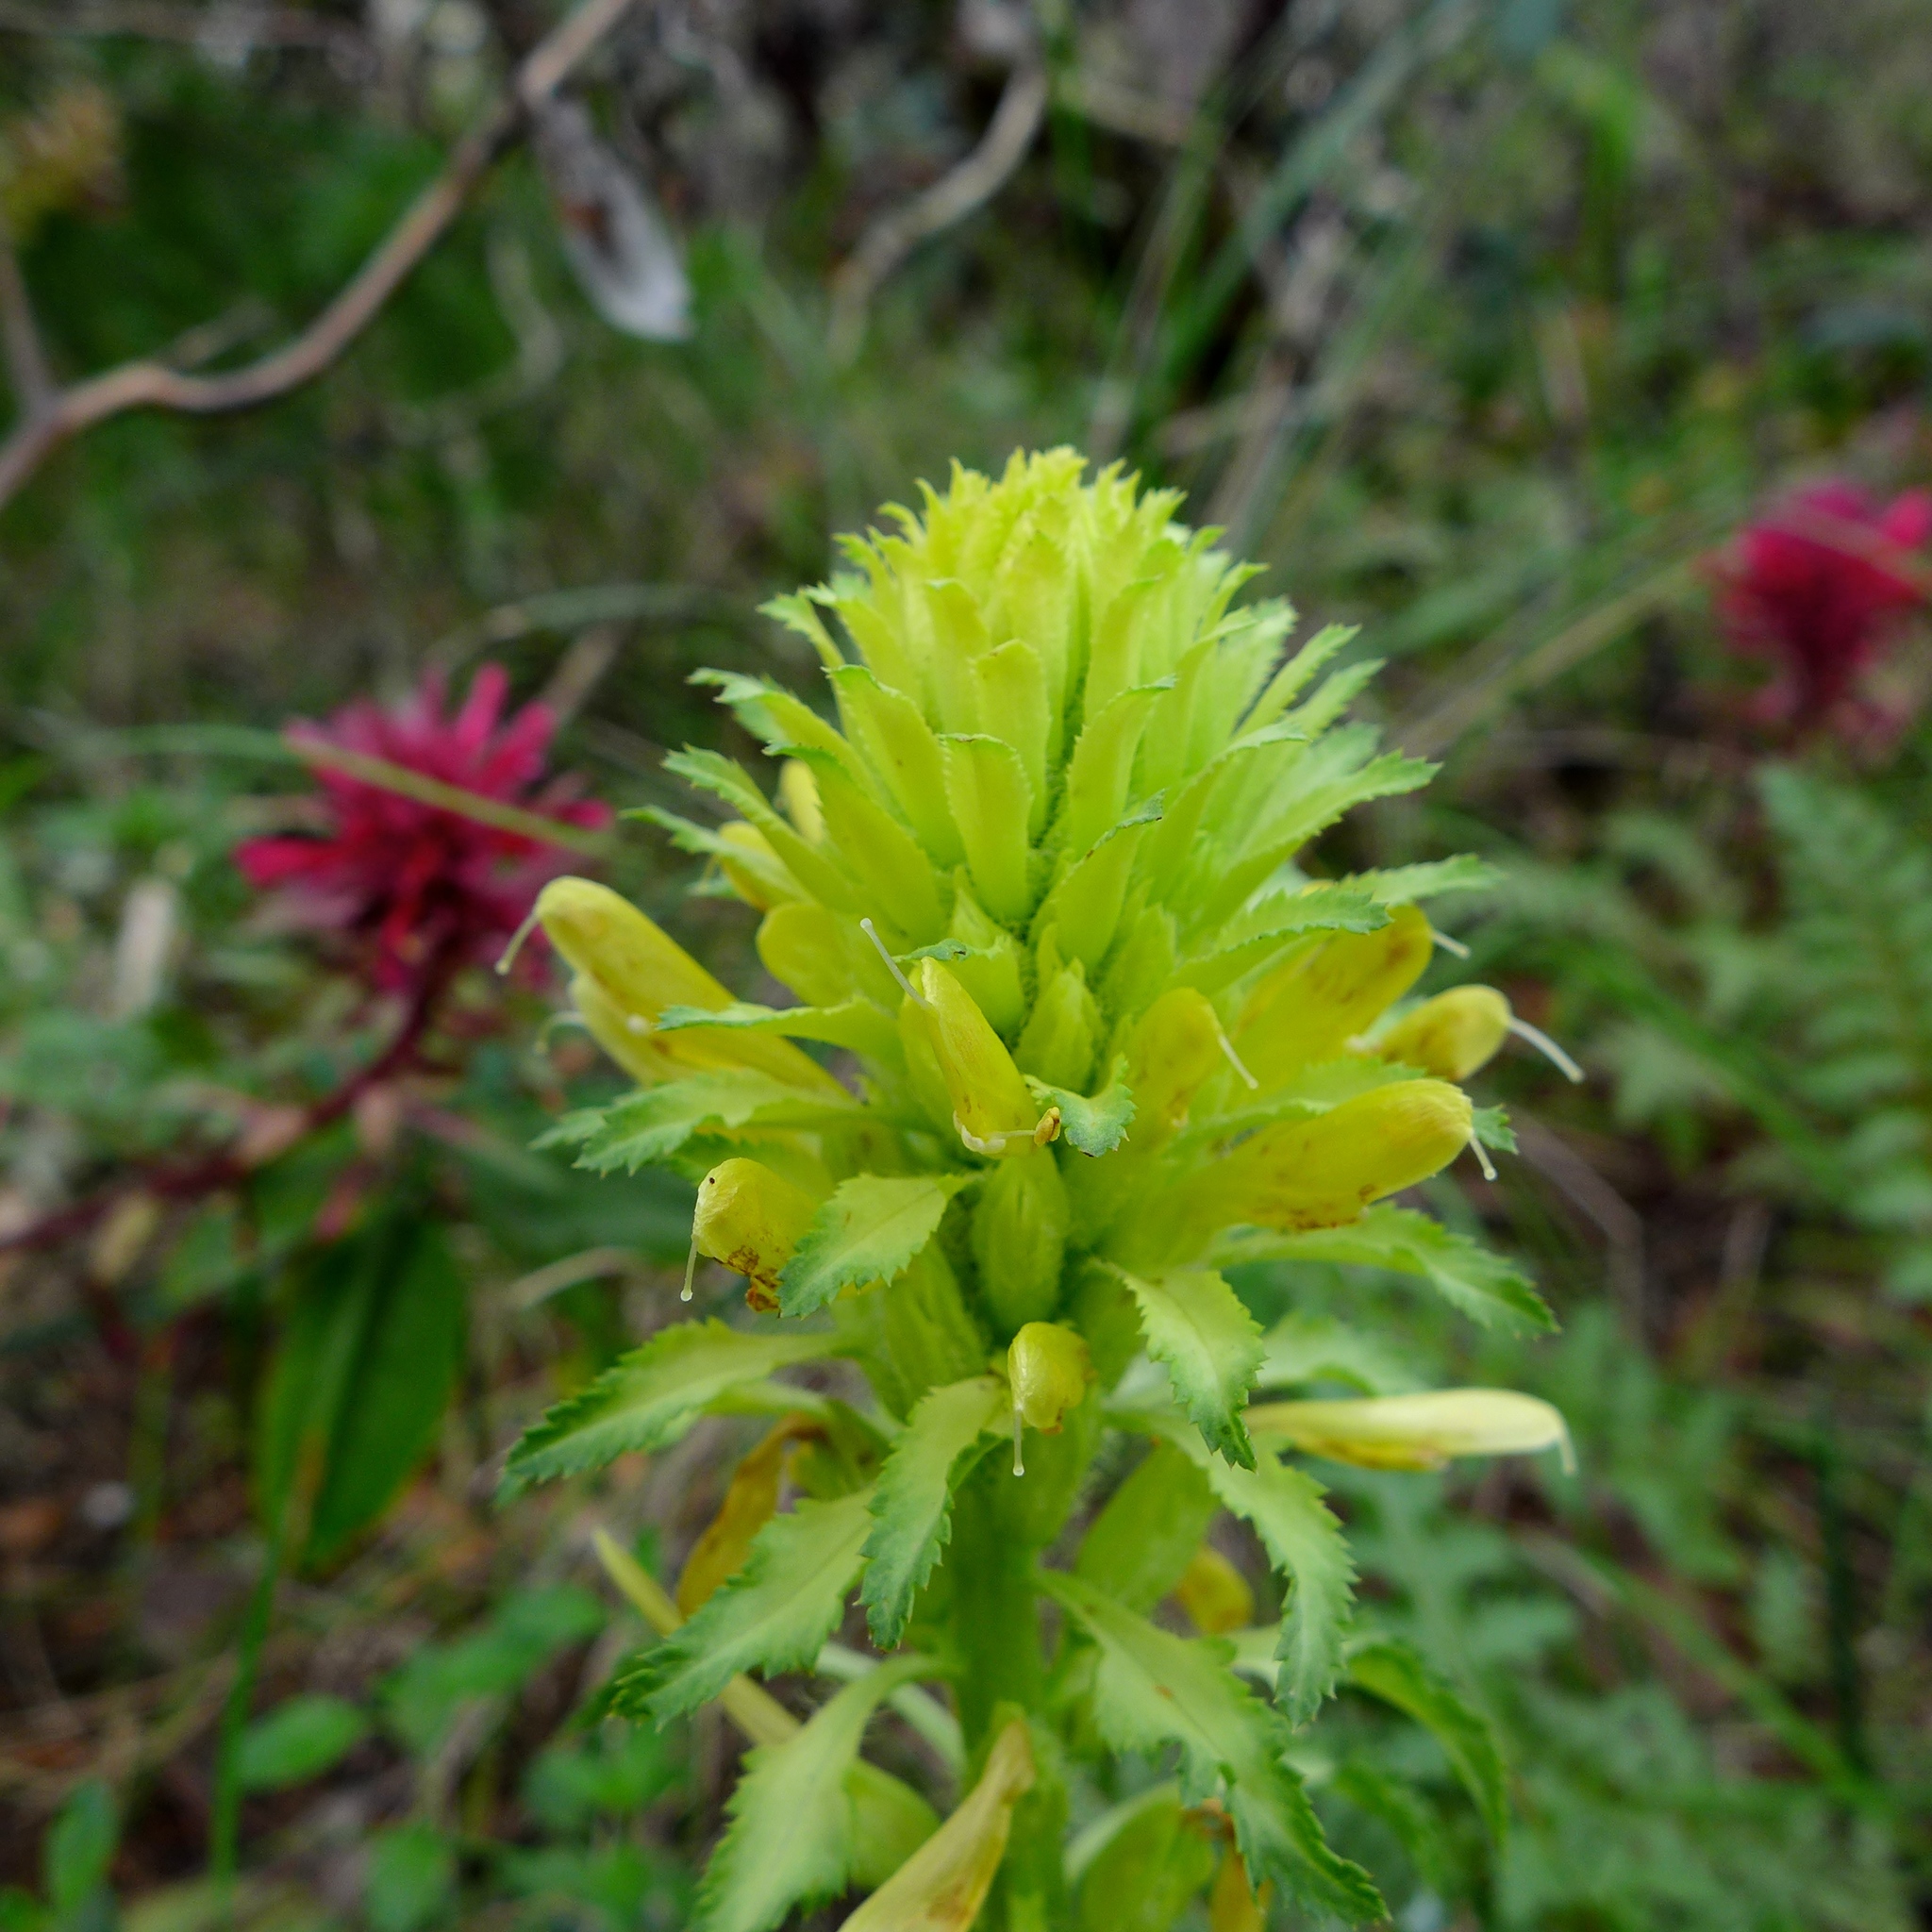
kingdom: Plantae
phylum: Tracheophyta
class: Magnoliopsida
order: Lamiales
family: Orobanchaceae
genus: Pedicularis
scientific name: Pedicularis densiflora
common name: Indian warrior
